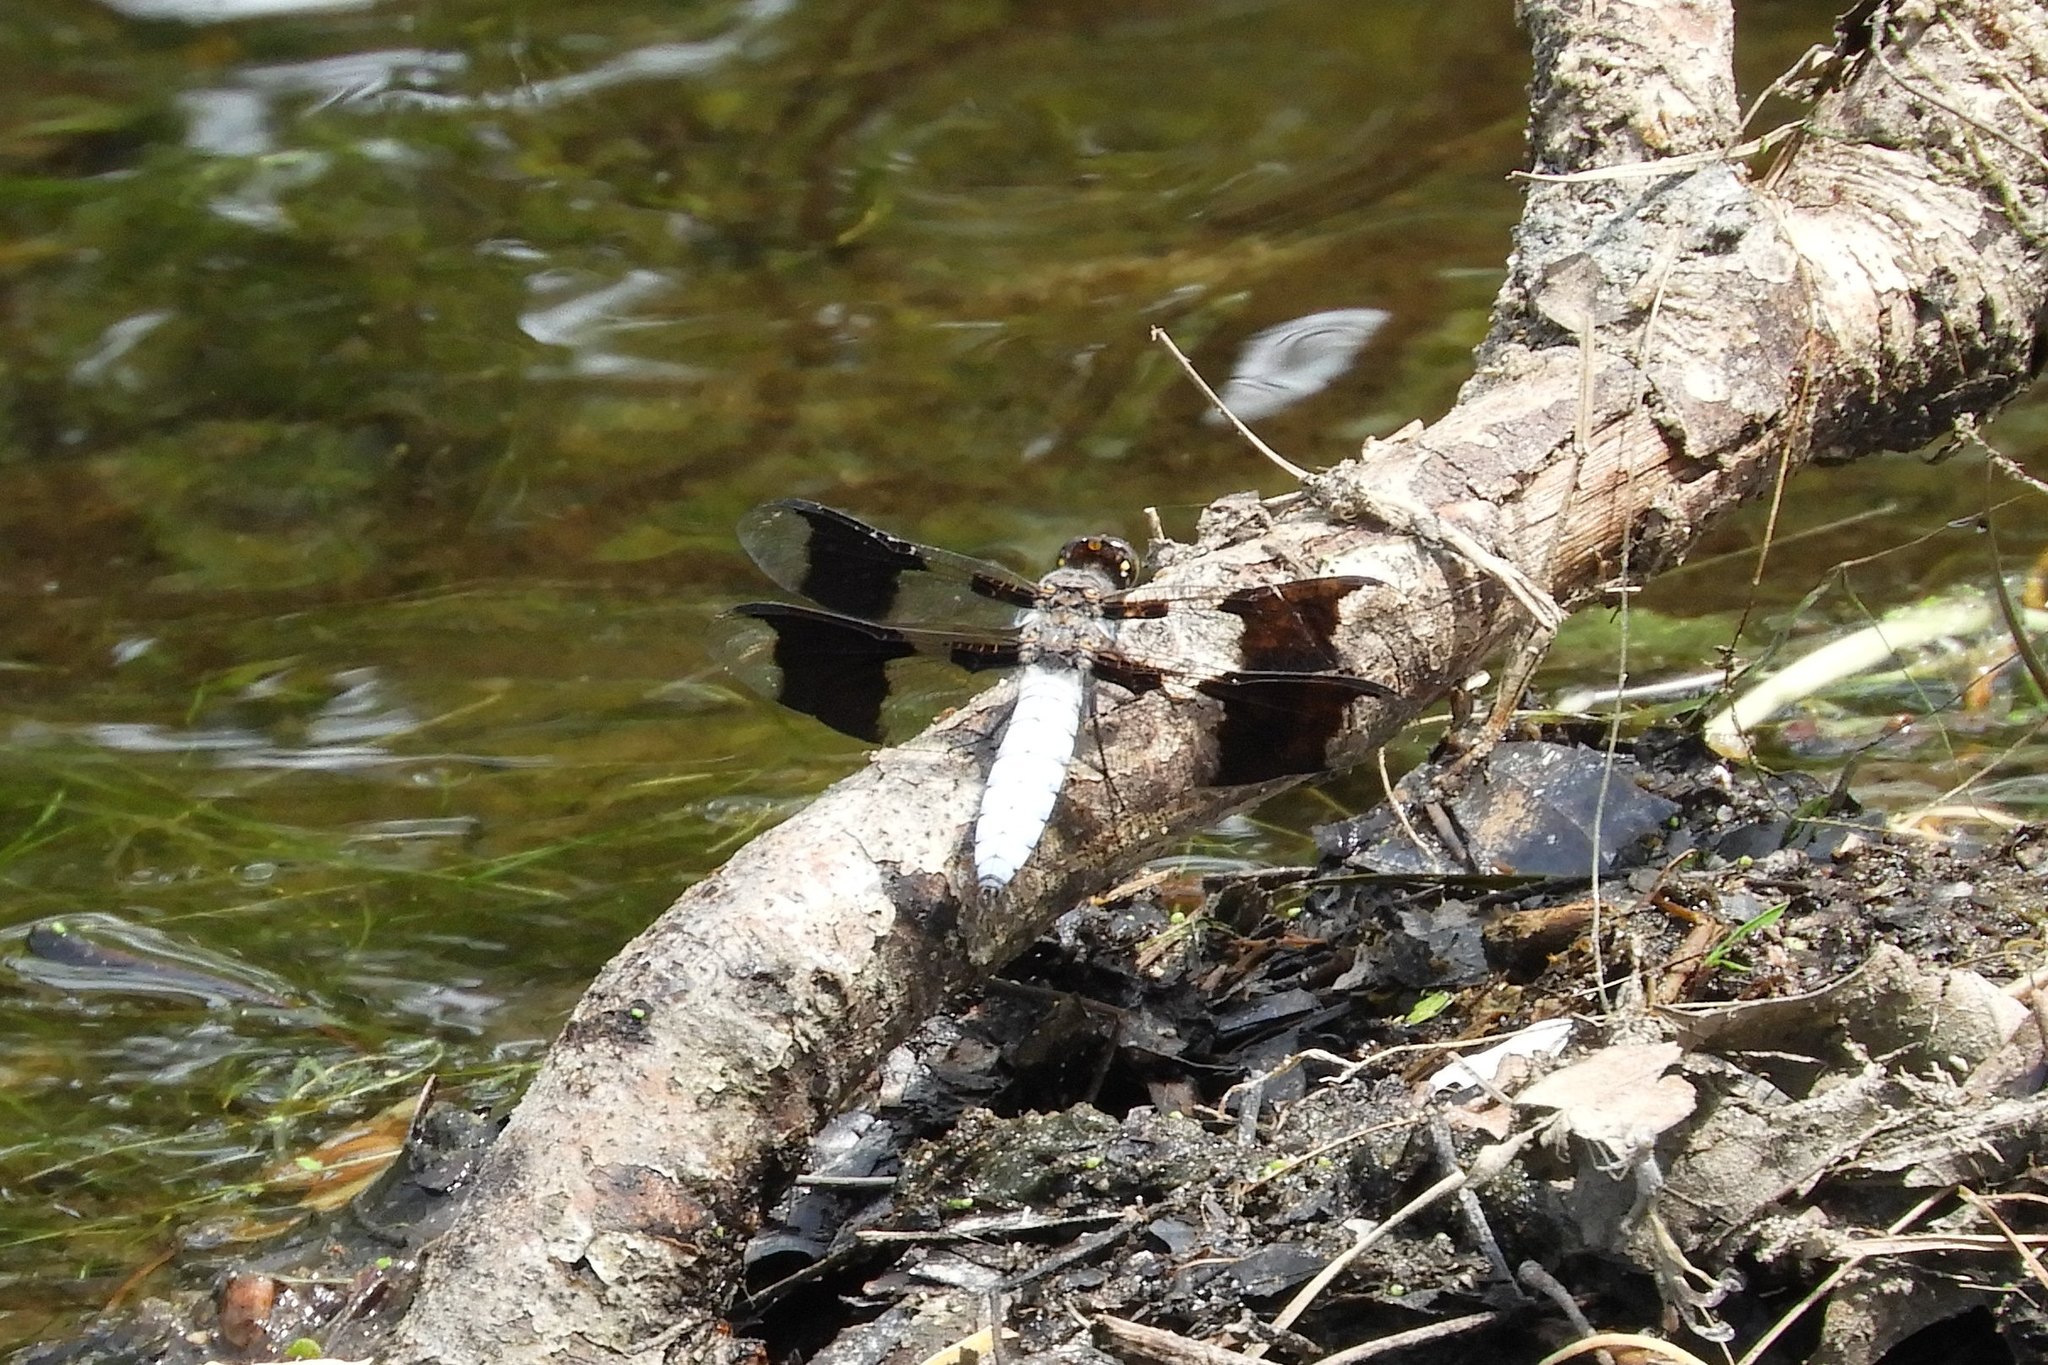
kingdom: Animalia
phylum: Arthropoda
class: Insecta
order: Odonata
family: Libellulidae
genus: Plathemis
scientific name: Plathemis lydia
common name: Common whitetail
